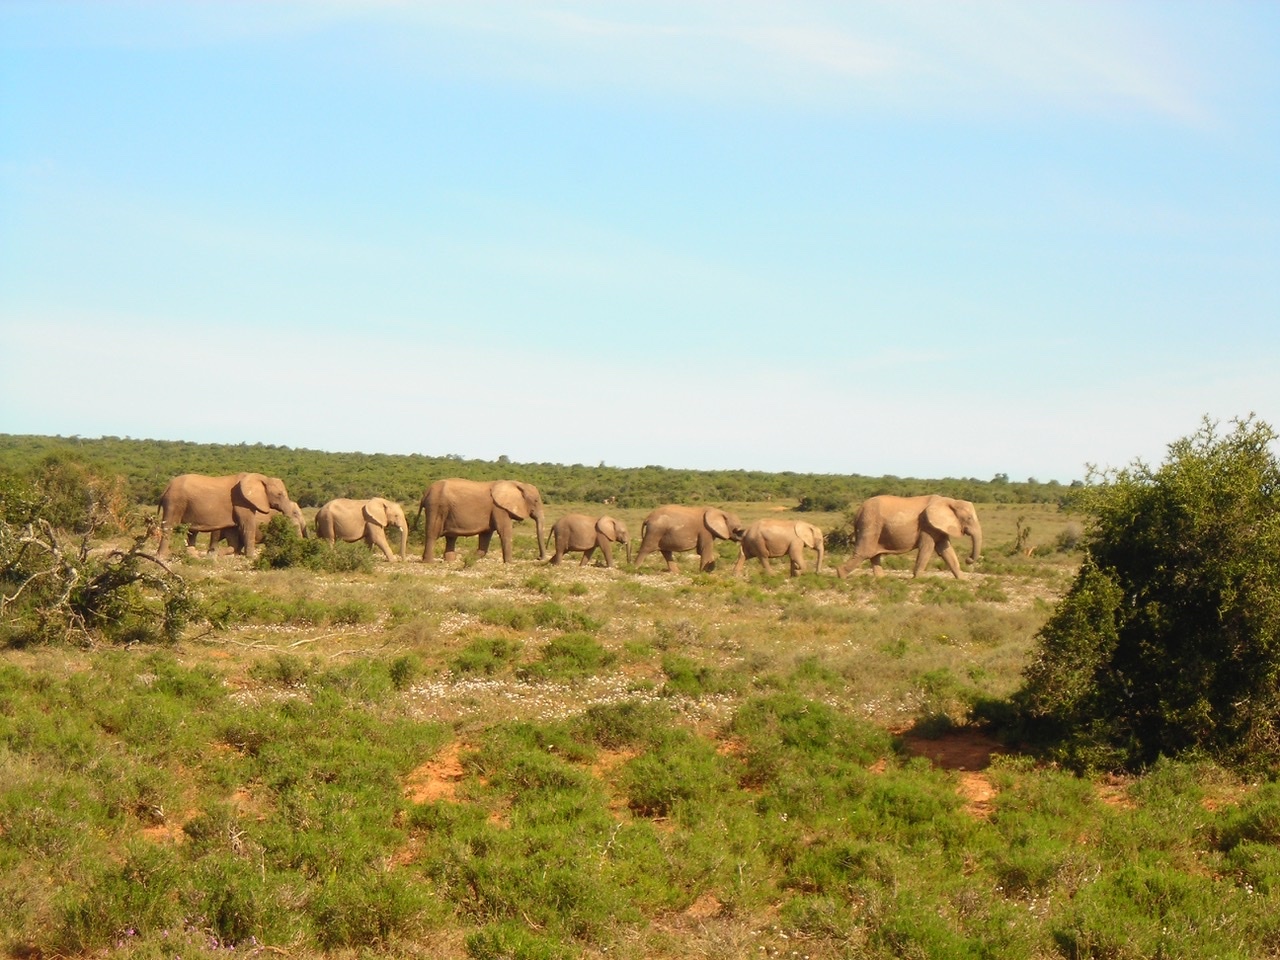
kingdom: Animalia
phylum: Chordata
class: Mammalia
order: Proboscidea
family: Elephantidae
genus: Loxodonta
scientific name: Loxodonta africana
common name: African elephant
